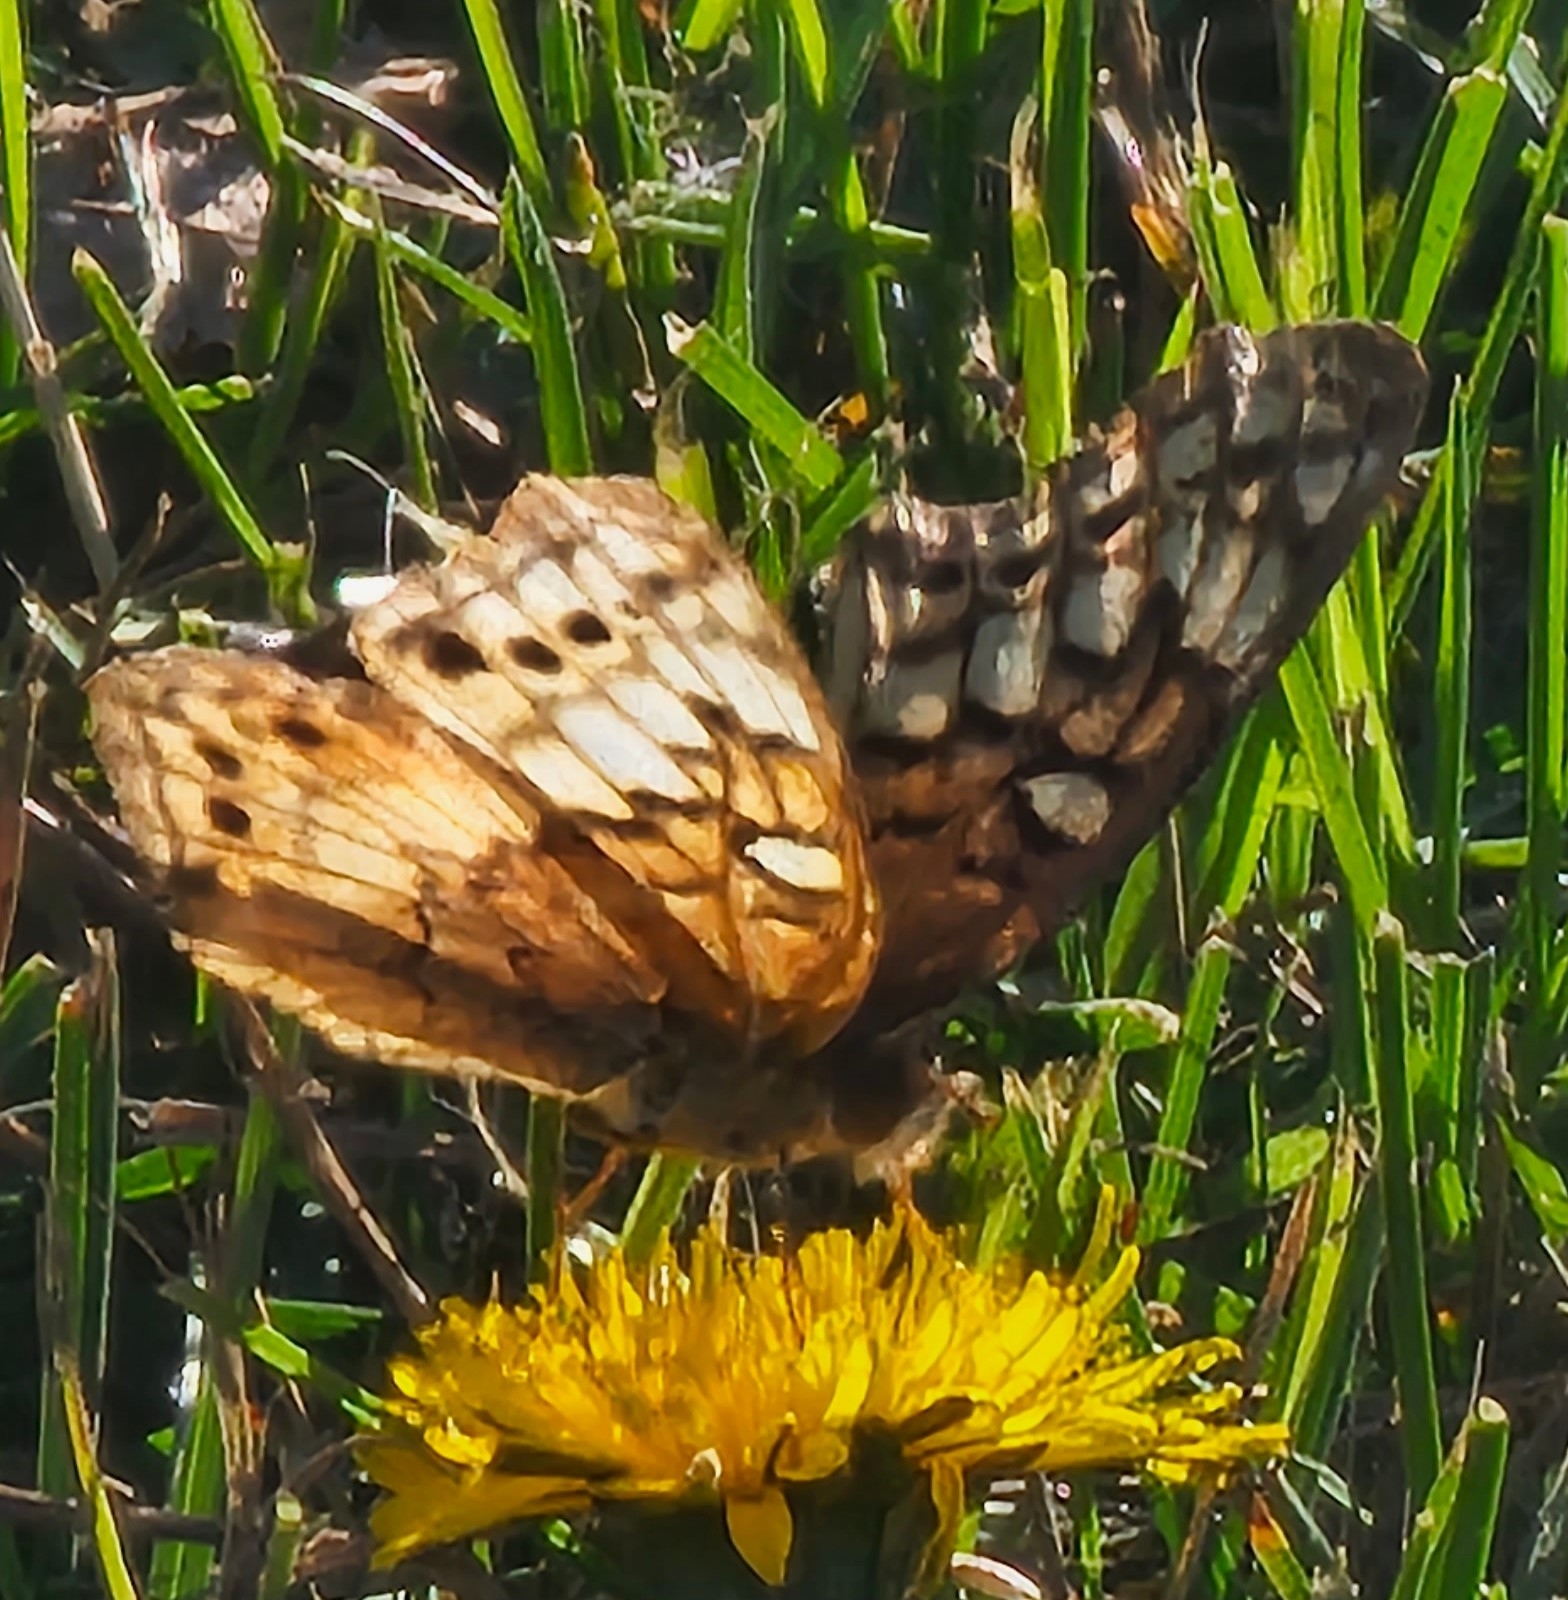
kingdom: Animalia
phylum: Arthropoda
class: Insecta
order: Lepidoptera
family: Nymphalidae
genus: Euptoieta
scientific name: Euptoieta claudia
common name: Variegated fritillary
